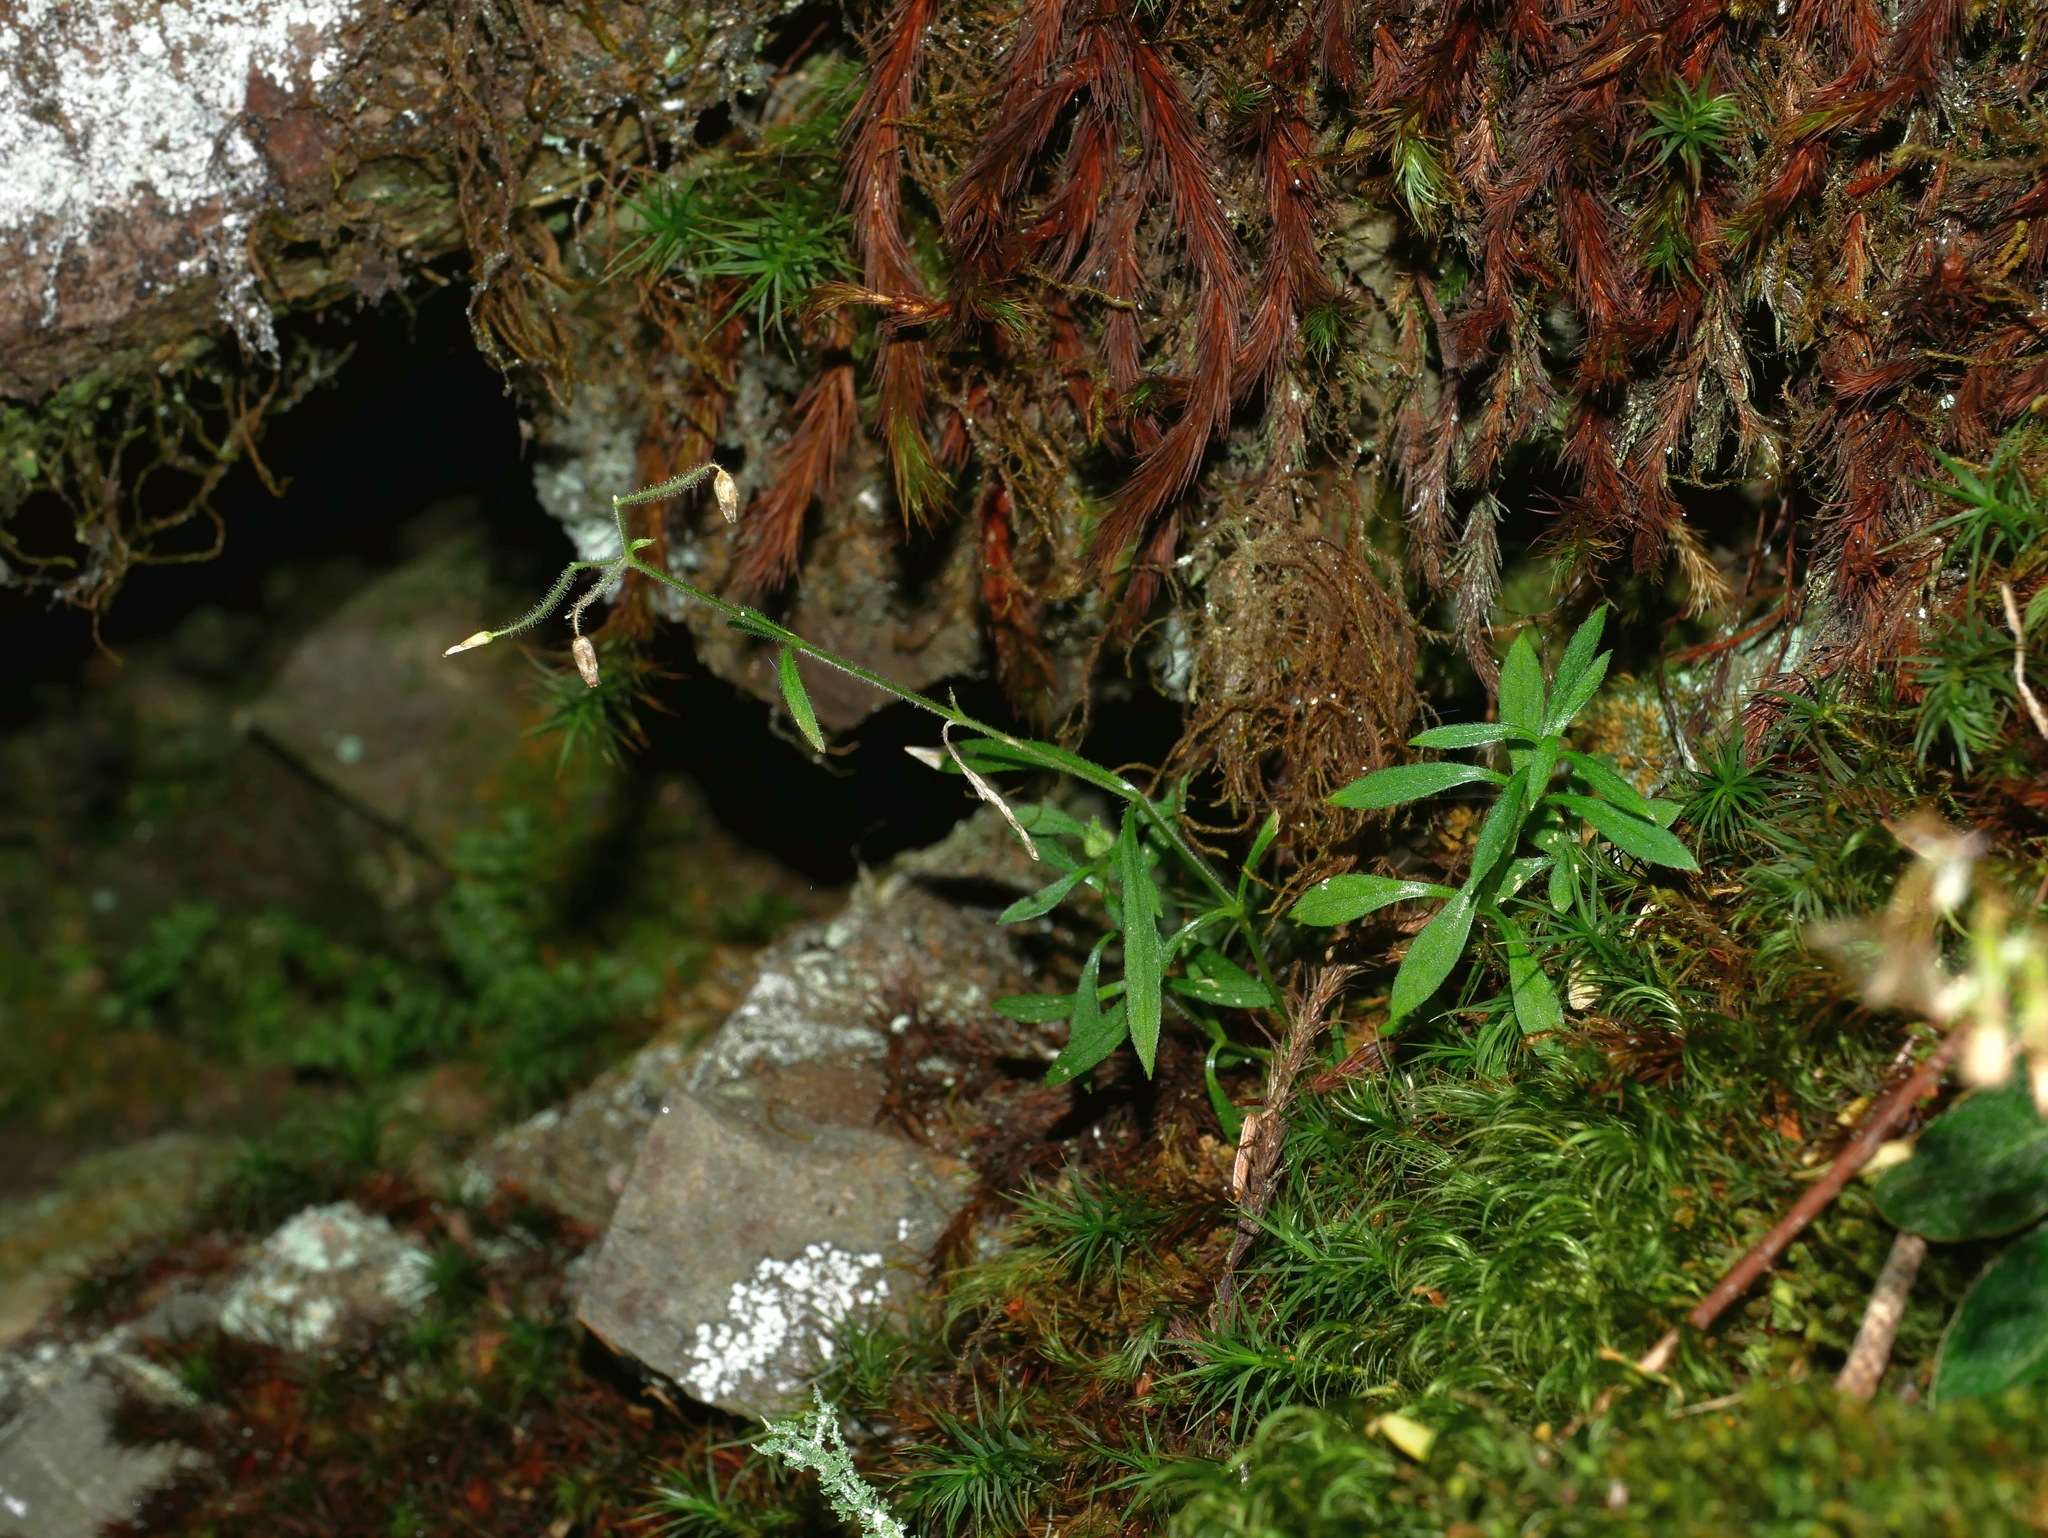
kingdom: Plantae
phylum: Tracheophyta
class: Magnoliopsida
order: Caryophyllales
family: Caryophyllaceae
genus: Cerastium
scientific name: Cerastium subpilosum
